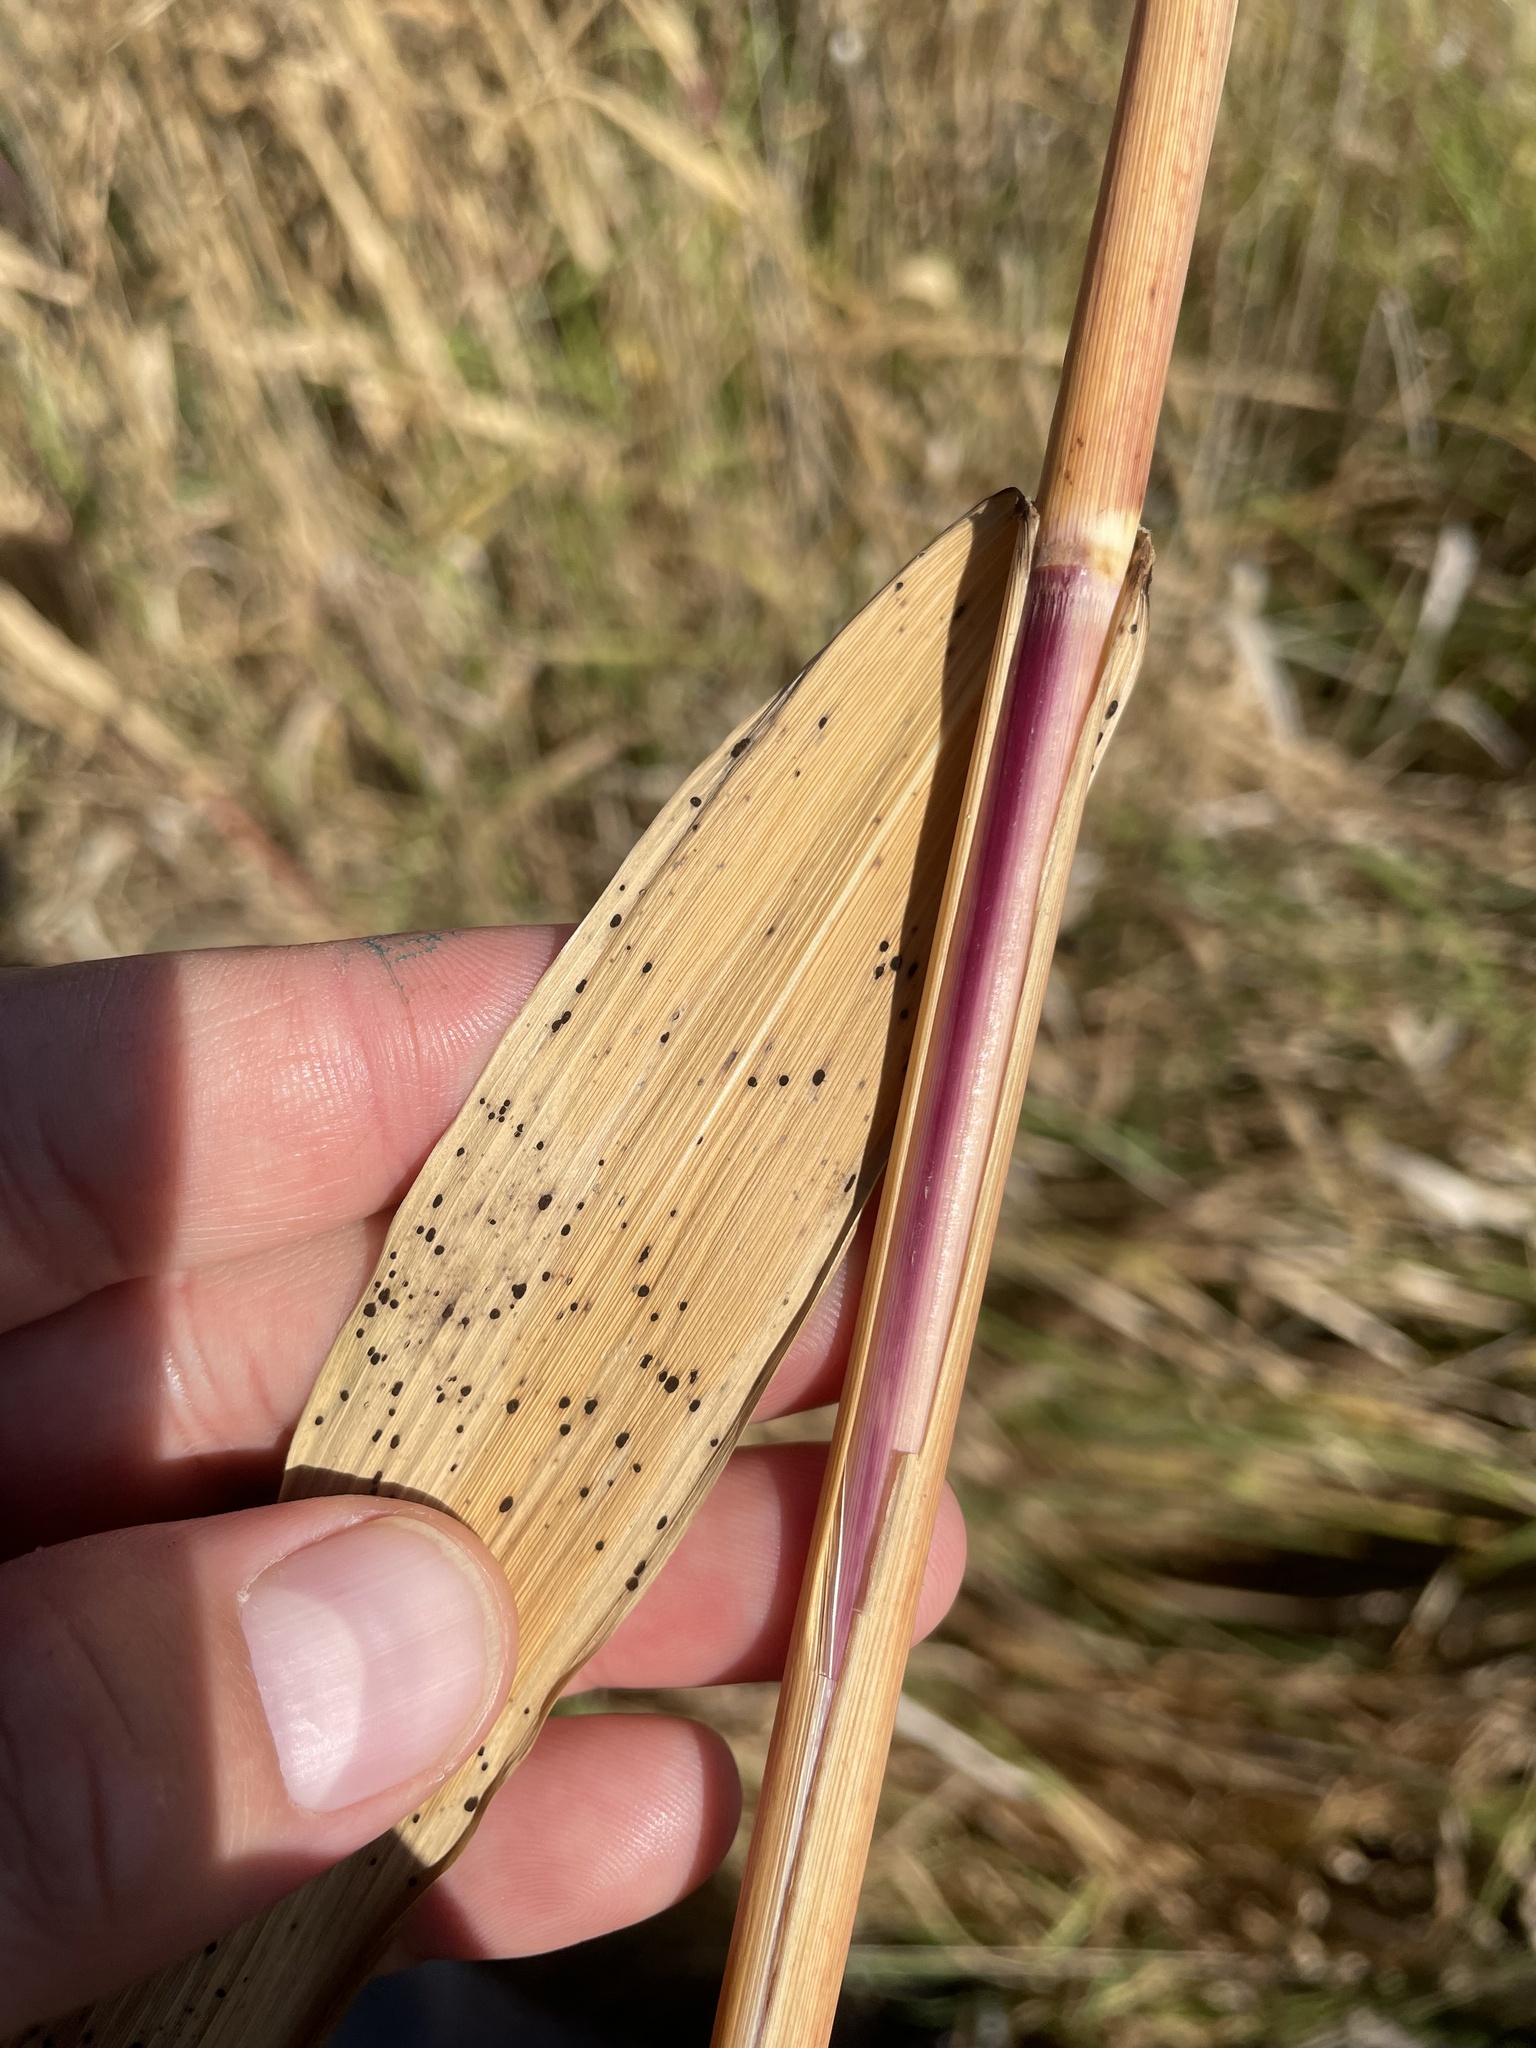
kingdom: Plantae
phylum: Tracheophyta
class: Liliopsida
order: Poales
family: Poaceae
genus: Phragmites
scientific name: Phragmites australis
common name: Common reed
